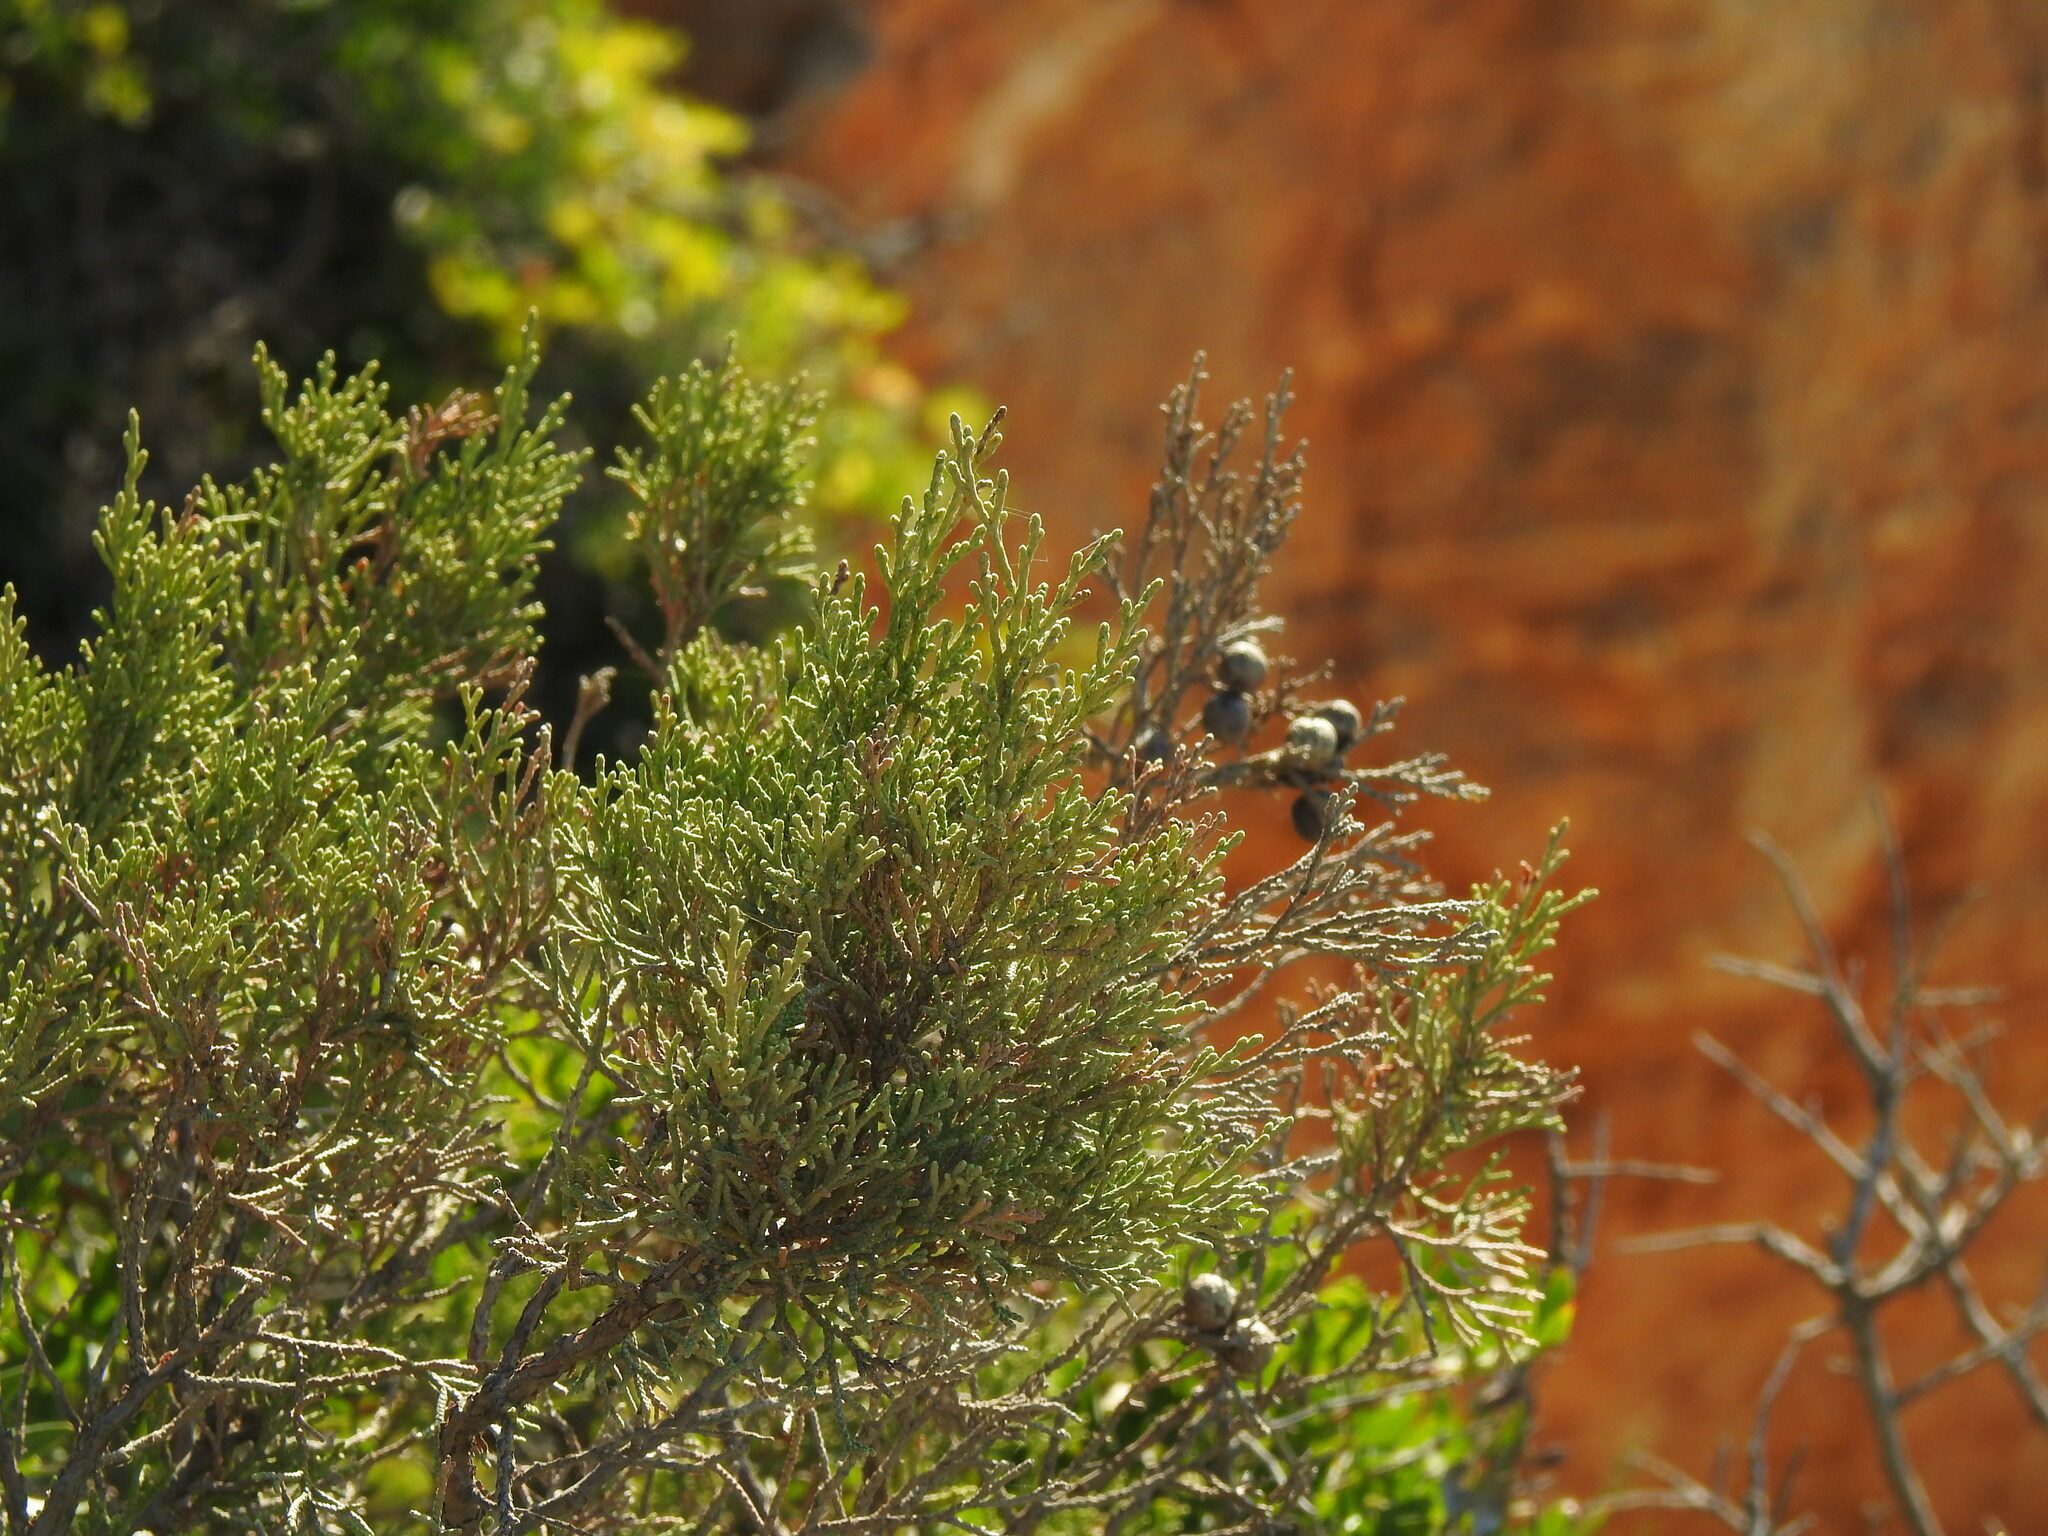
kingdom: Plantae
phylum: Tracheophyta
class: Pinopsida
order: Pinales
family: Cupressaceae
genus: Juniperus
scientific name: Juniperus phoenicea
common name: Phoenician juniper
